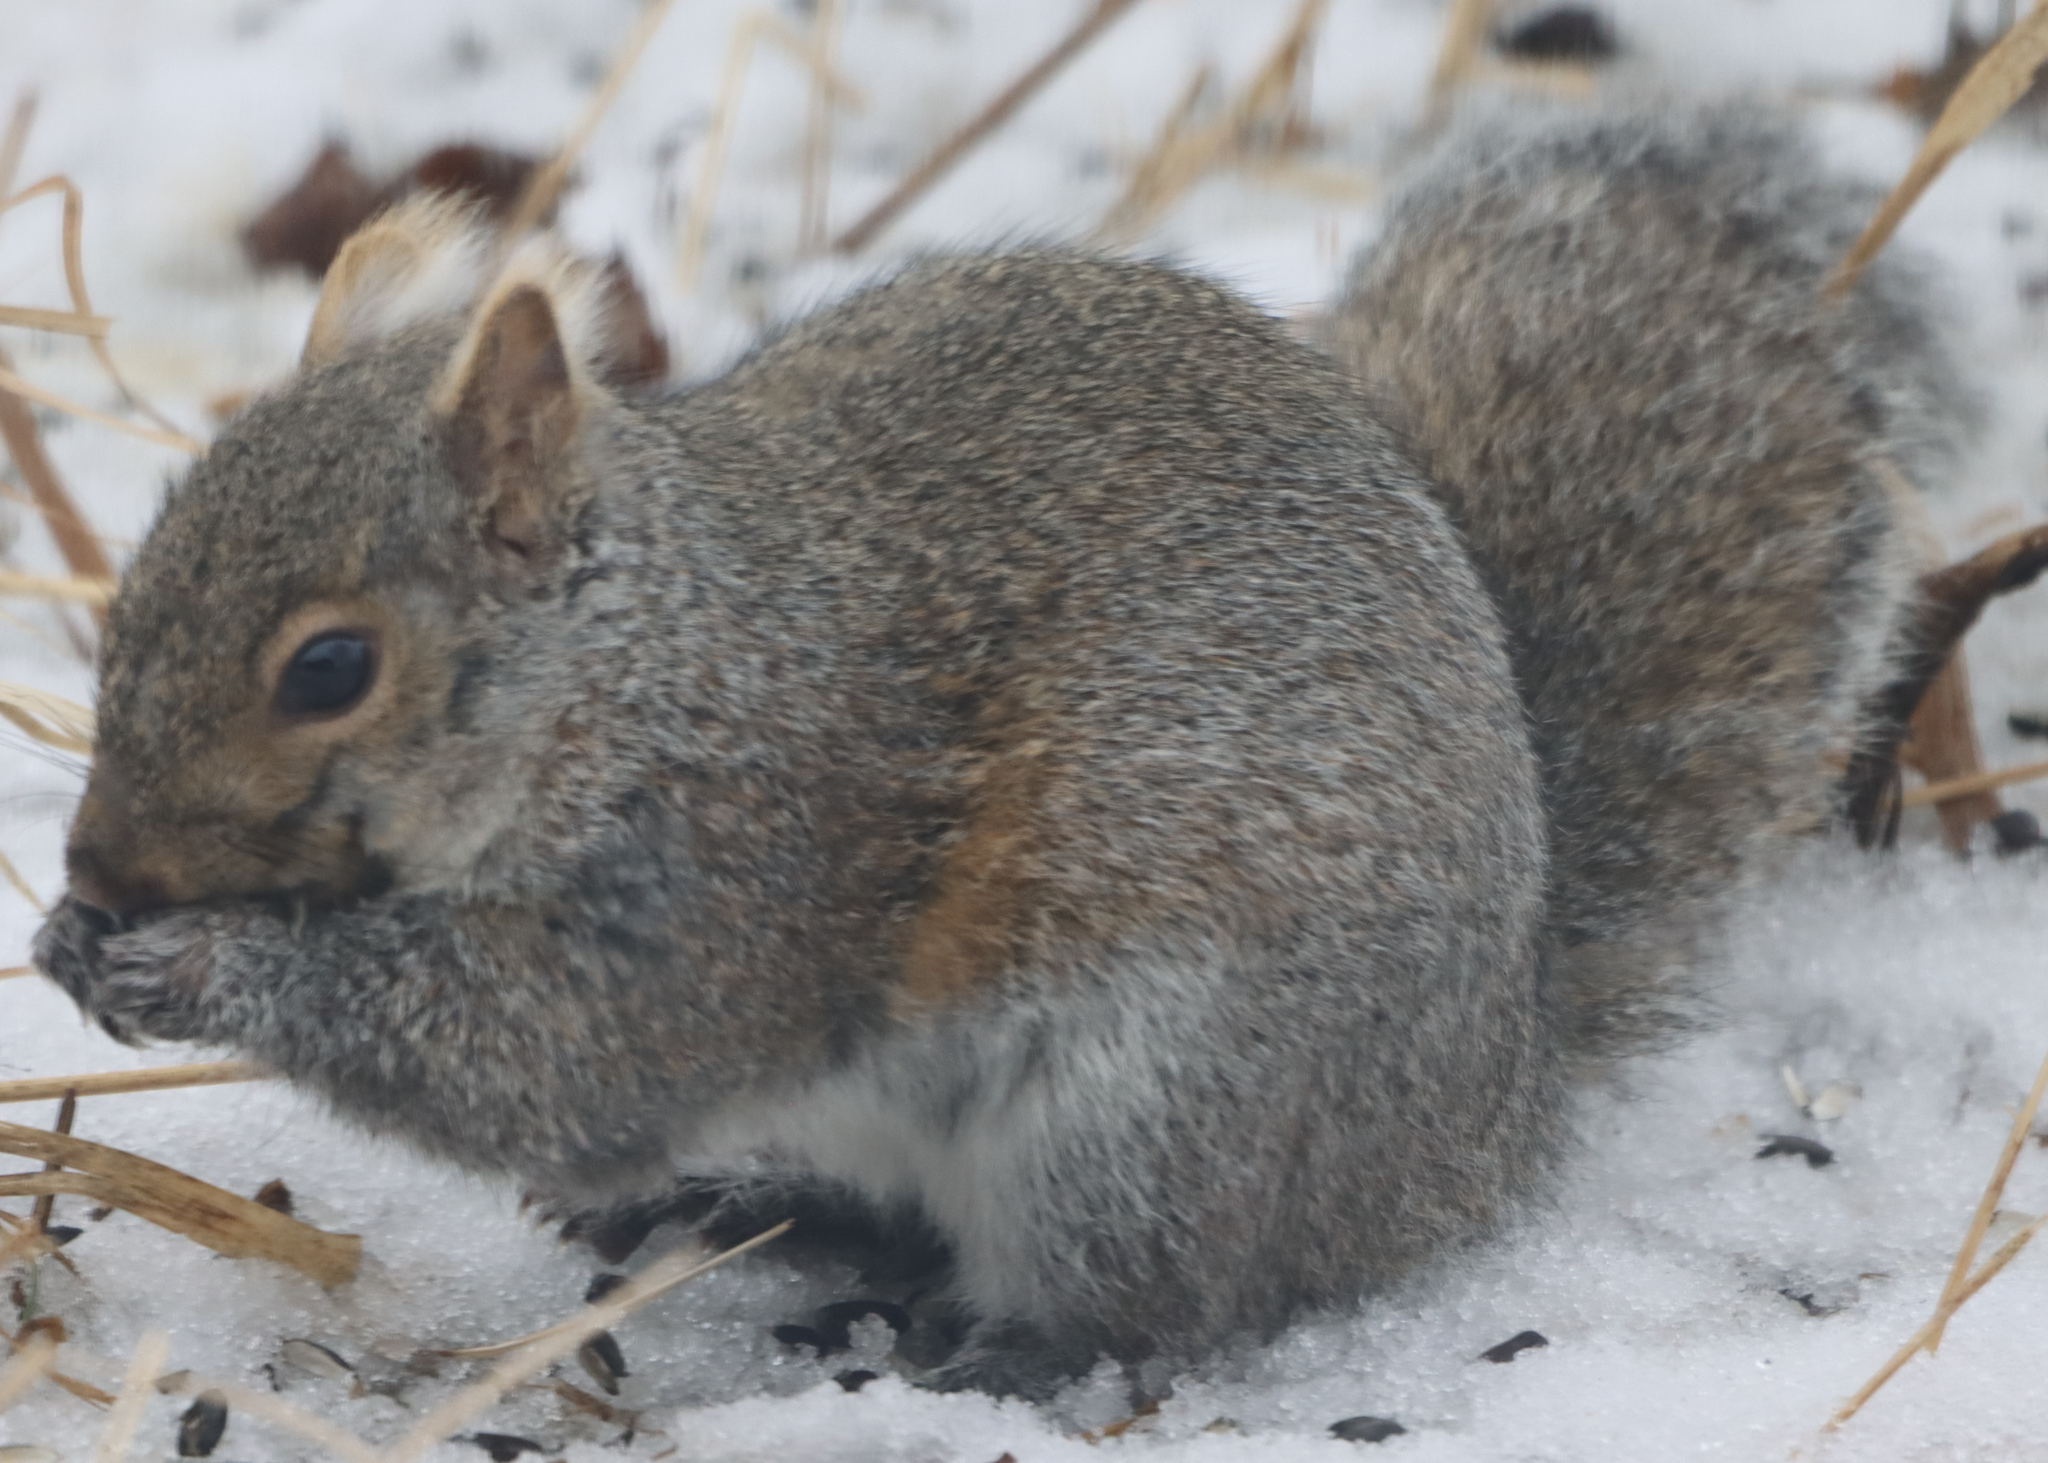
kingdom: Animalia
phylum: Chordata
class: Mammalia
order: Rodentia
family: Sciuridae
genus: Sciurus
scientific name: Sciurus carolinensis
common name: Eastern gray squirrel
